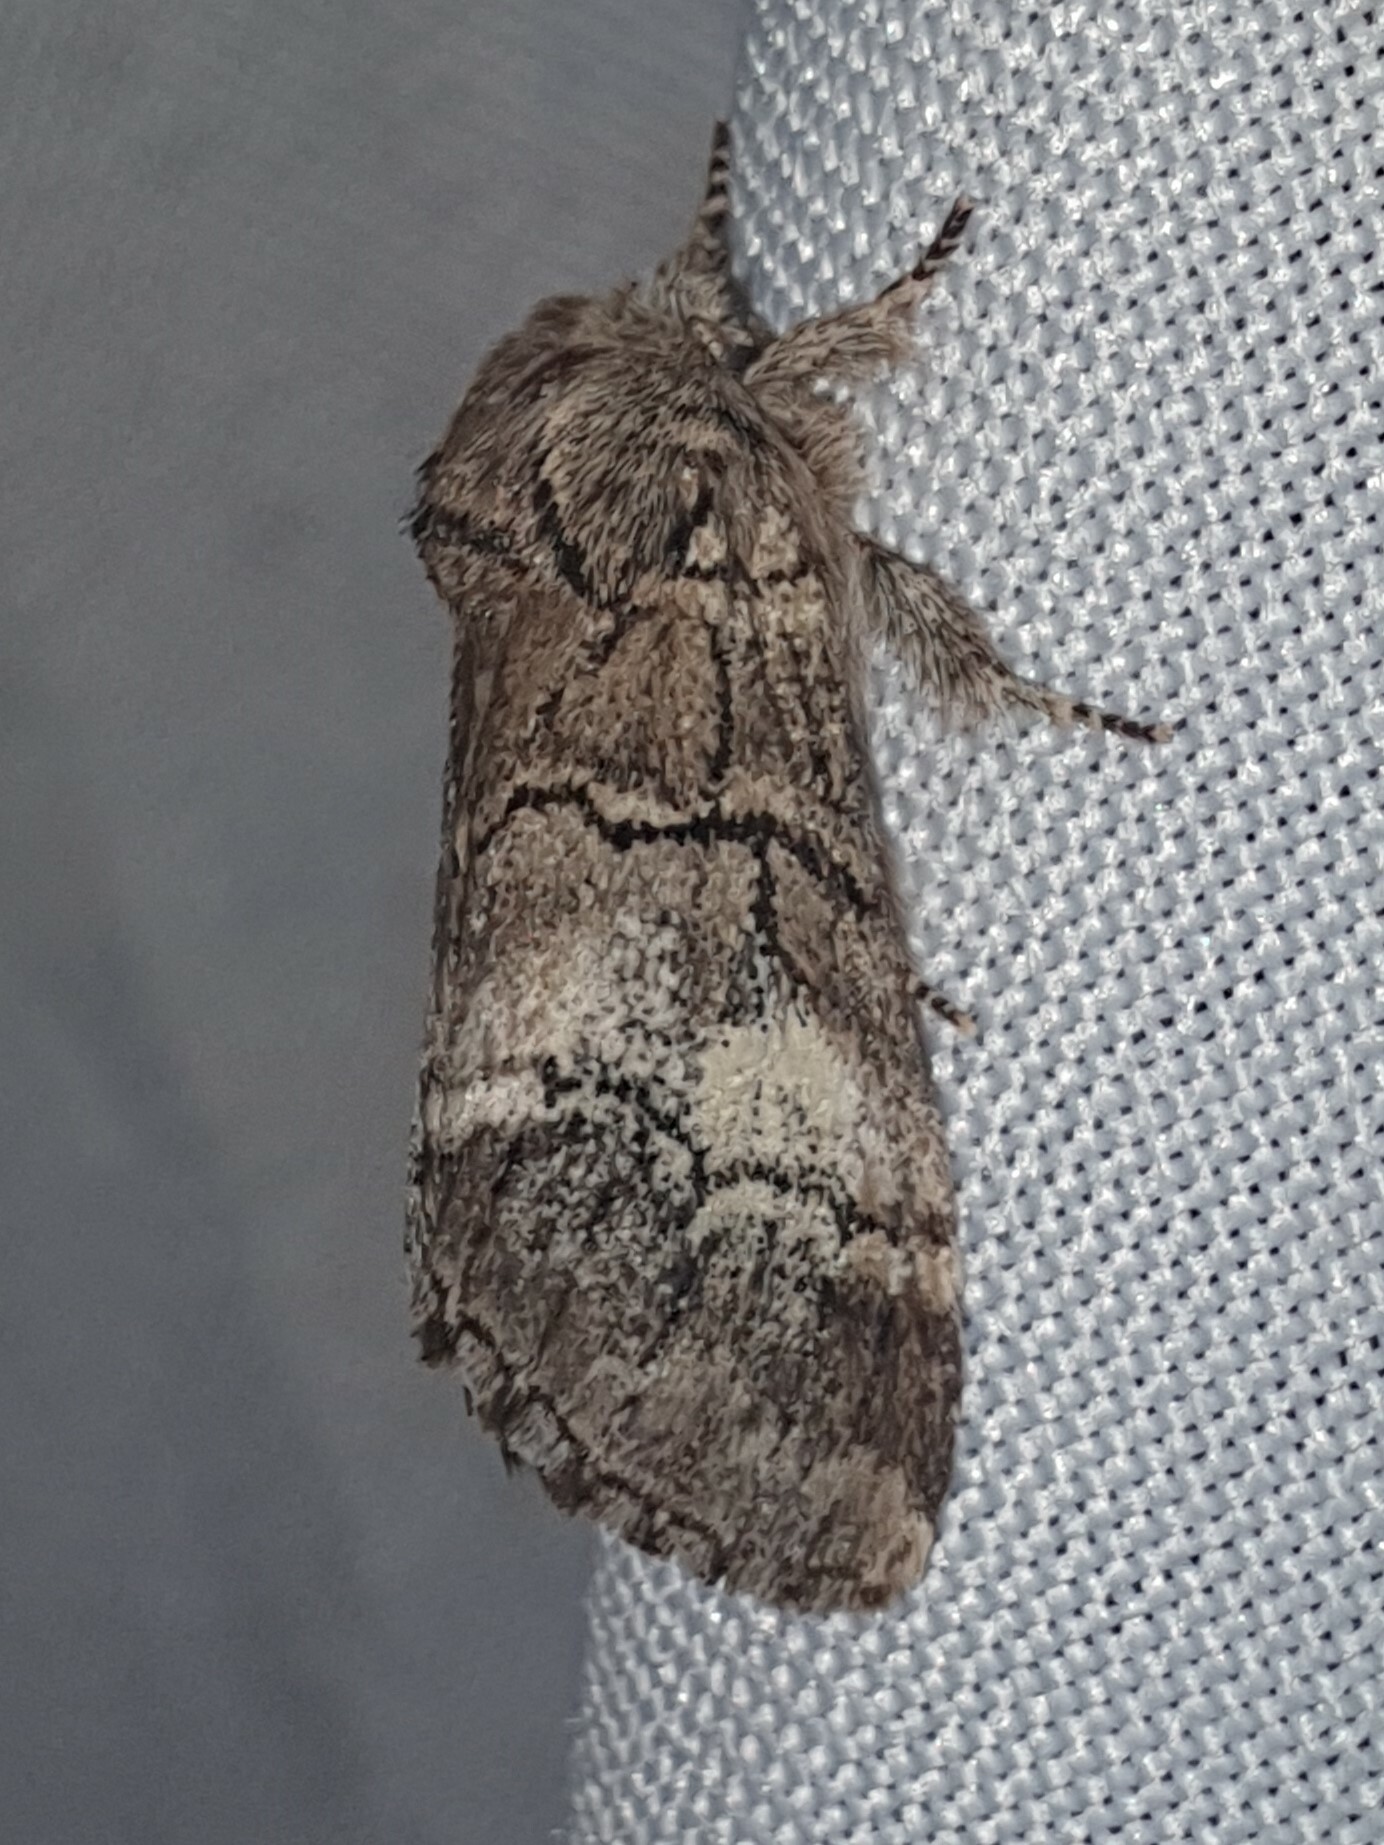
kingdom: Animalia
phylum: Arthropoda
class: Insecta
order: Lepidoptera
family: Notodontidae
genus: Drymonia
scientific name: Drymonia querna
